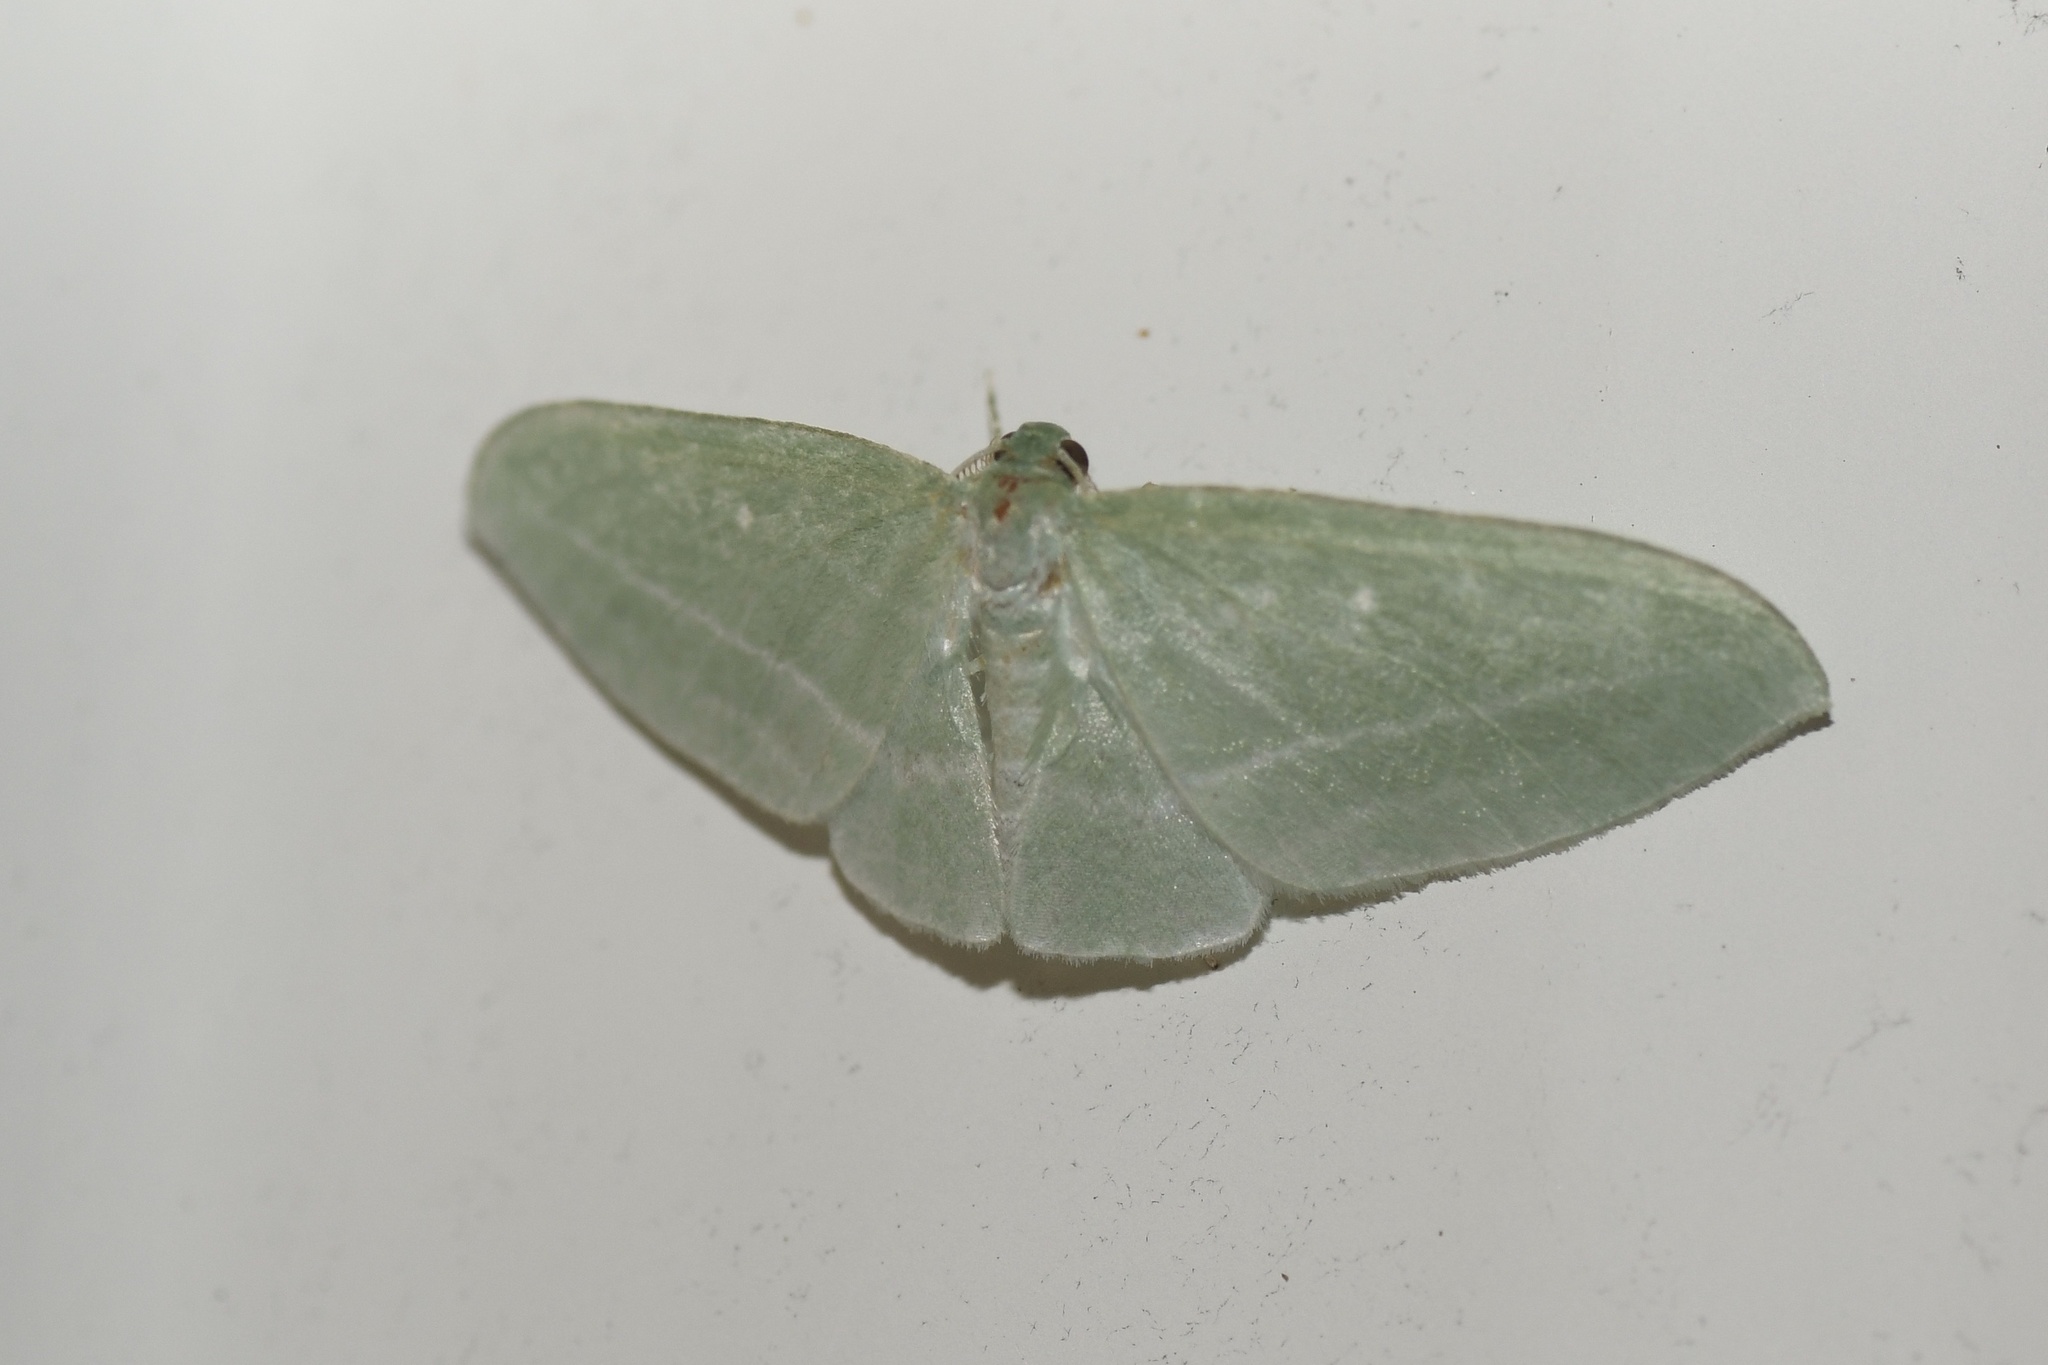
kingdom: Animalia
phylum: Arthropoda
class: Insecta
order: Lepidoptera
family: Geometridae
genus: Dyspteris
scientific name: Dyspteris abortivaria
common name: Bad-wing
